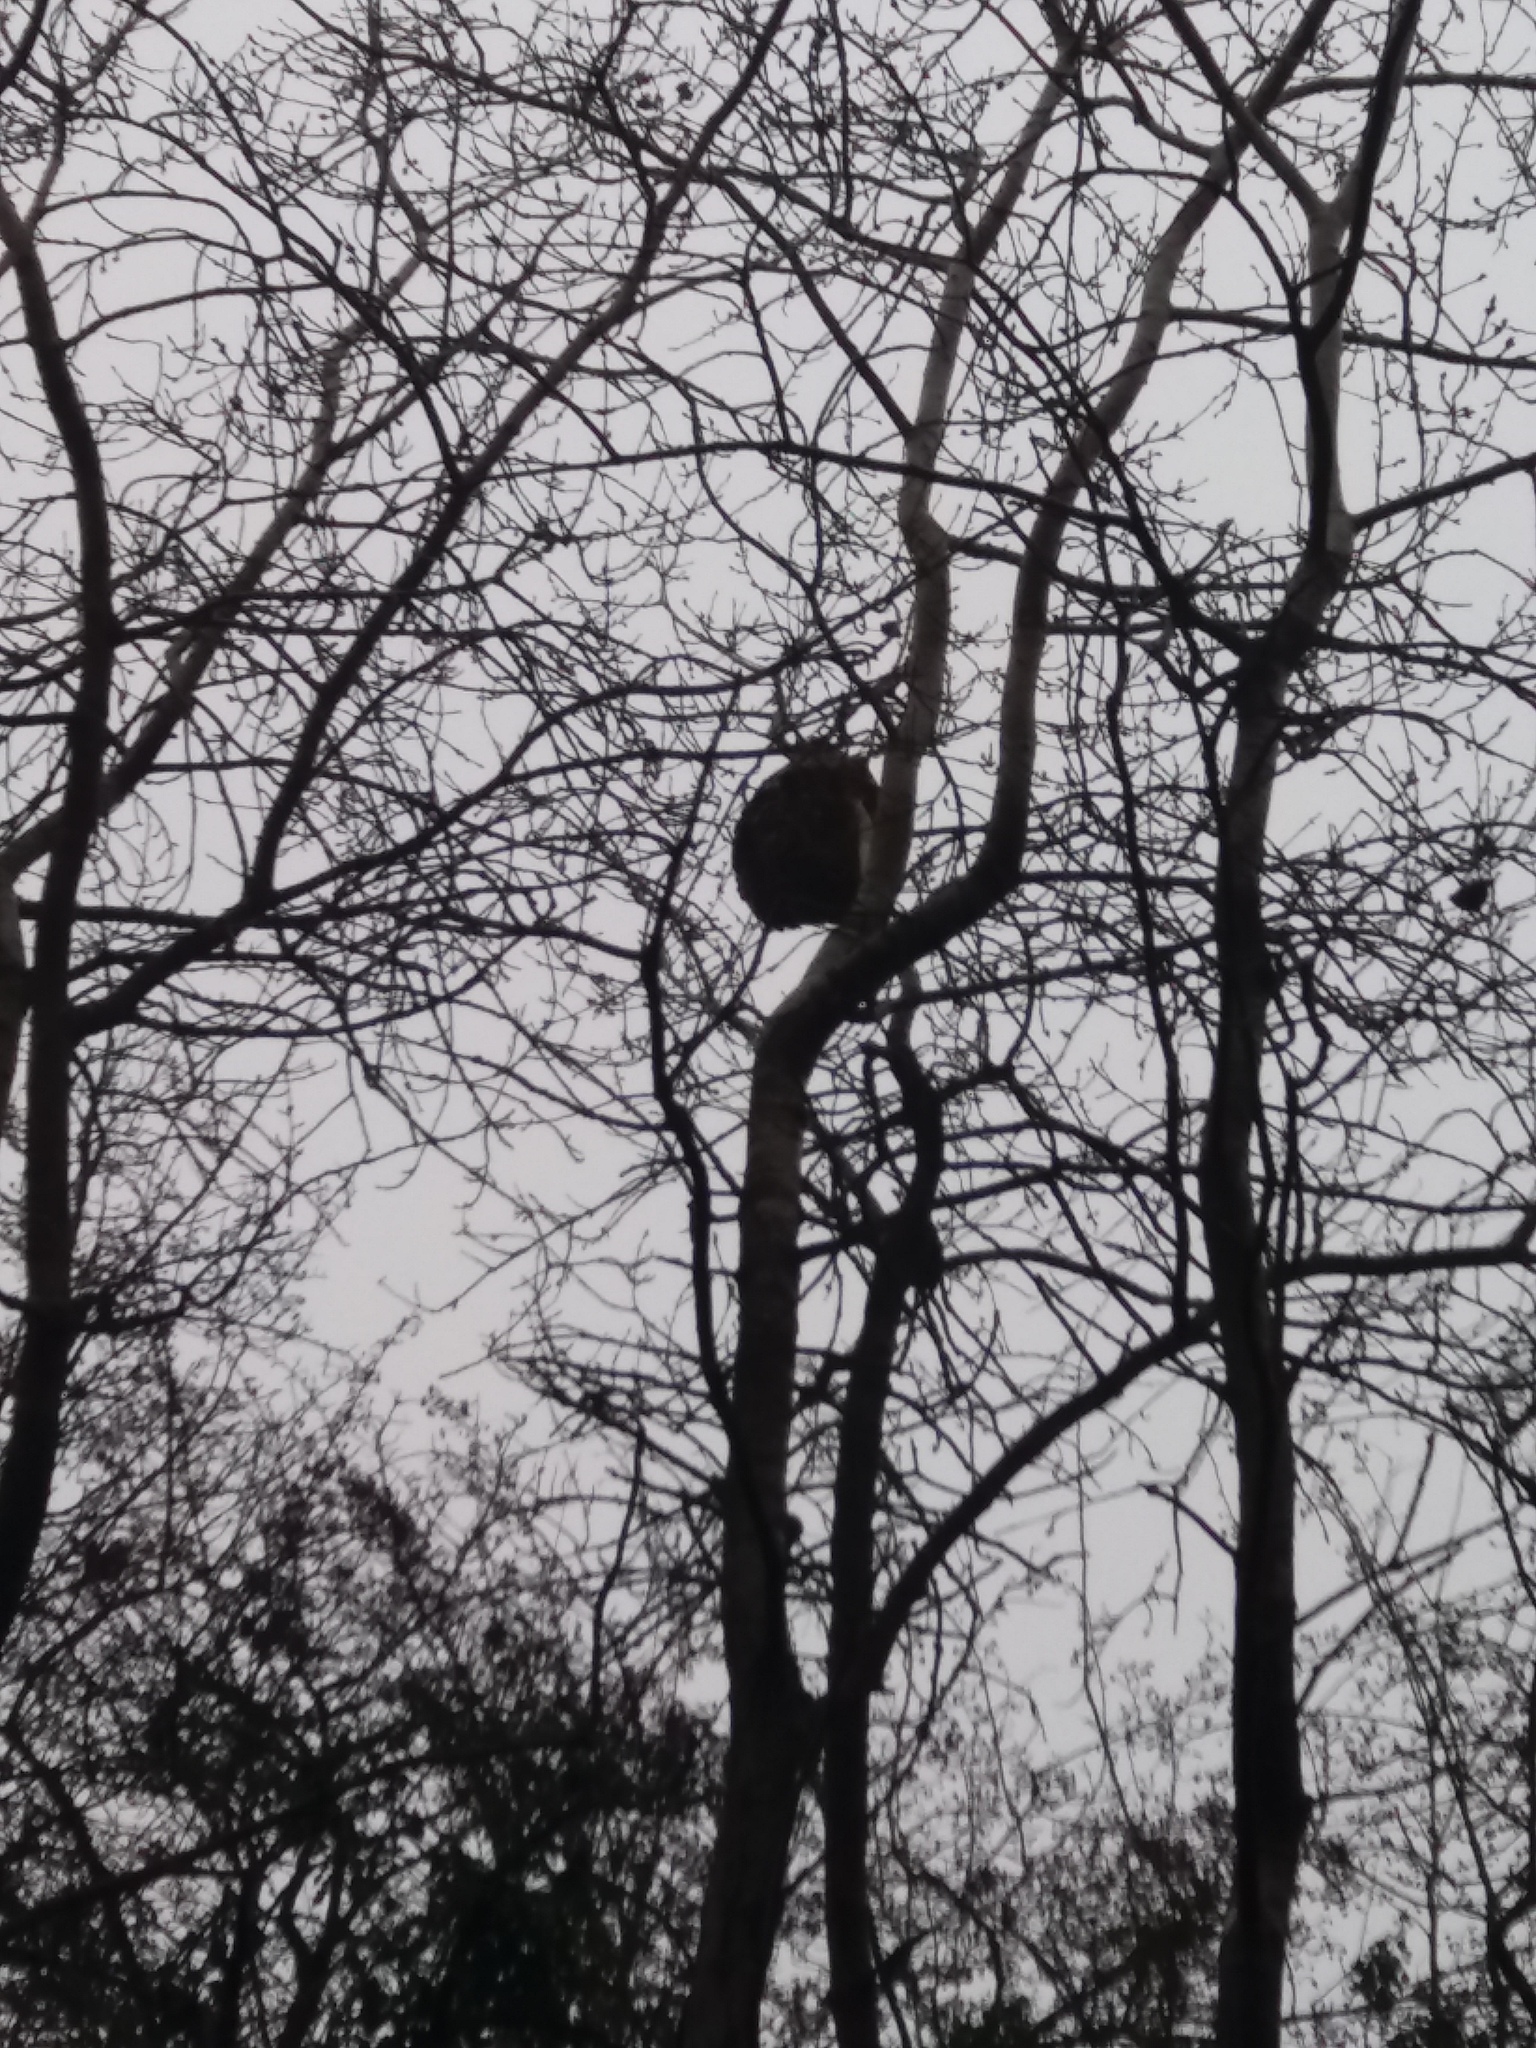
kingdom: Animalia
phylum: Arthropoda
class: Insecta
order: Hymenoptera
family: Vespidae
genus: Vespa
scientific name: Vespa velutina
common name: Asian hornet
